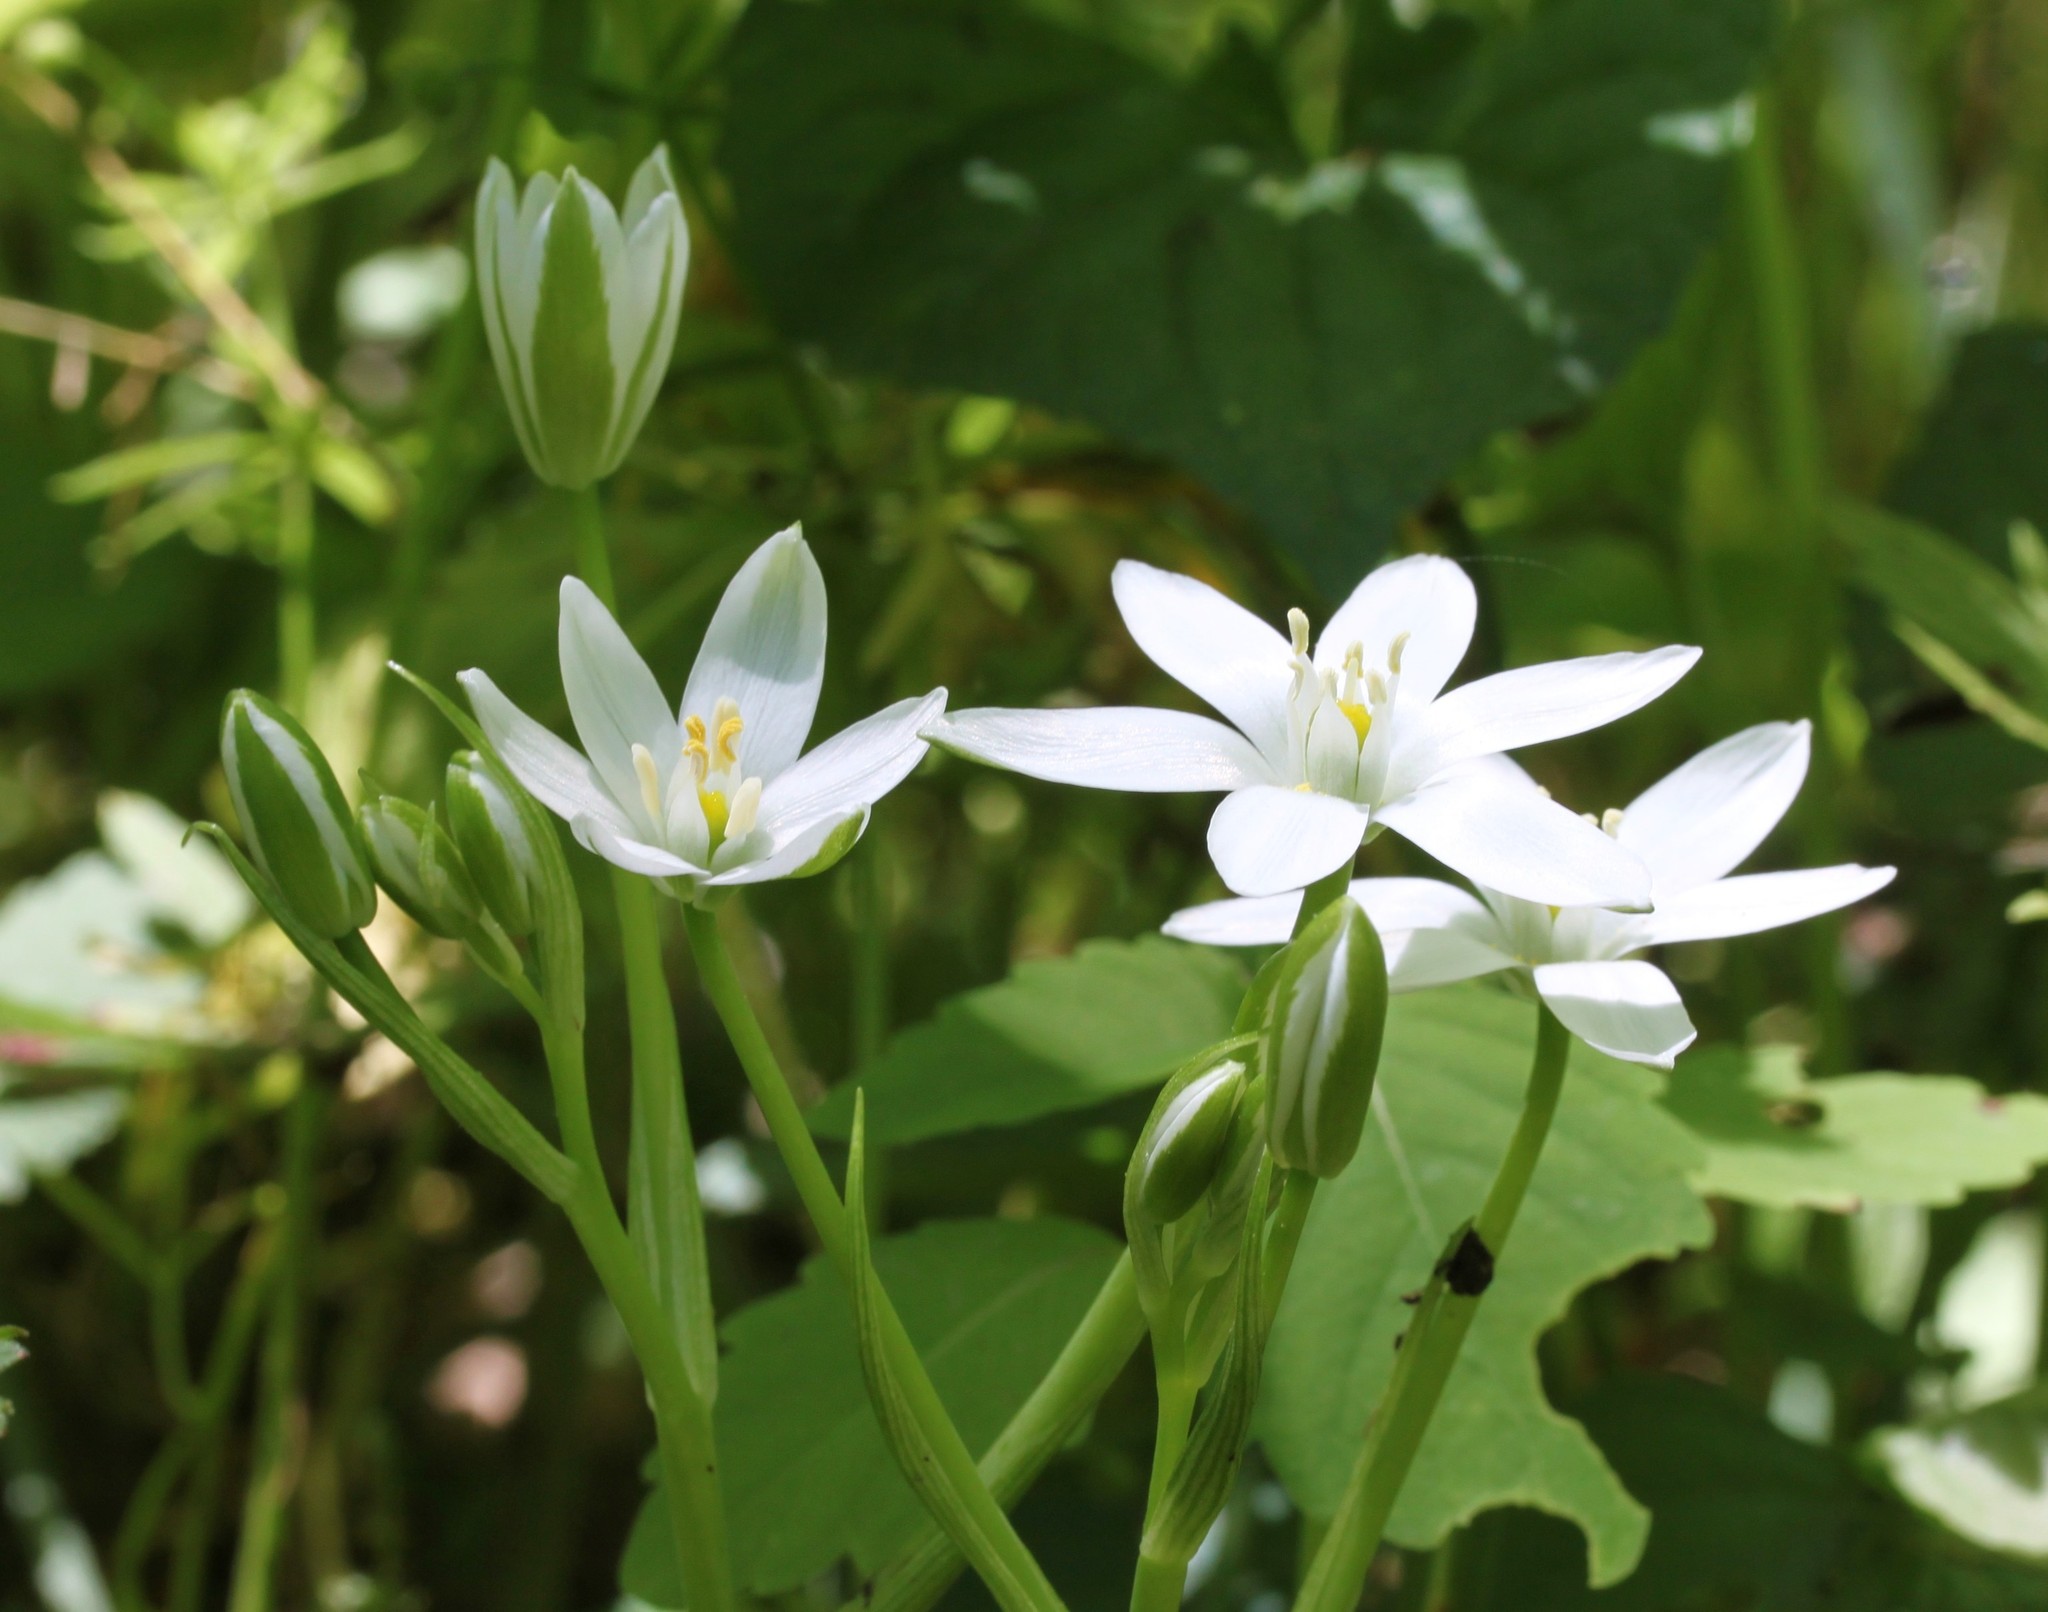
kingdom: Plantae
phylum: Tracheophyta
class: Liliopsida
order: Asparagales
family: Asparagaceae
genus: Ornithogalum
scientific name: Ornithogalum umbellatum
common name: Garden star-of-bethlehem
